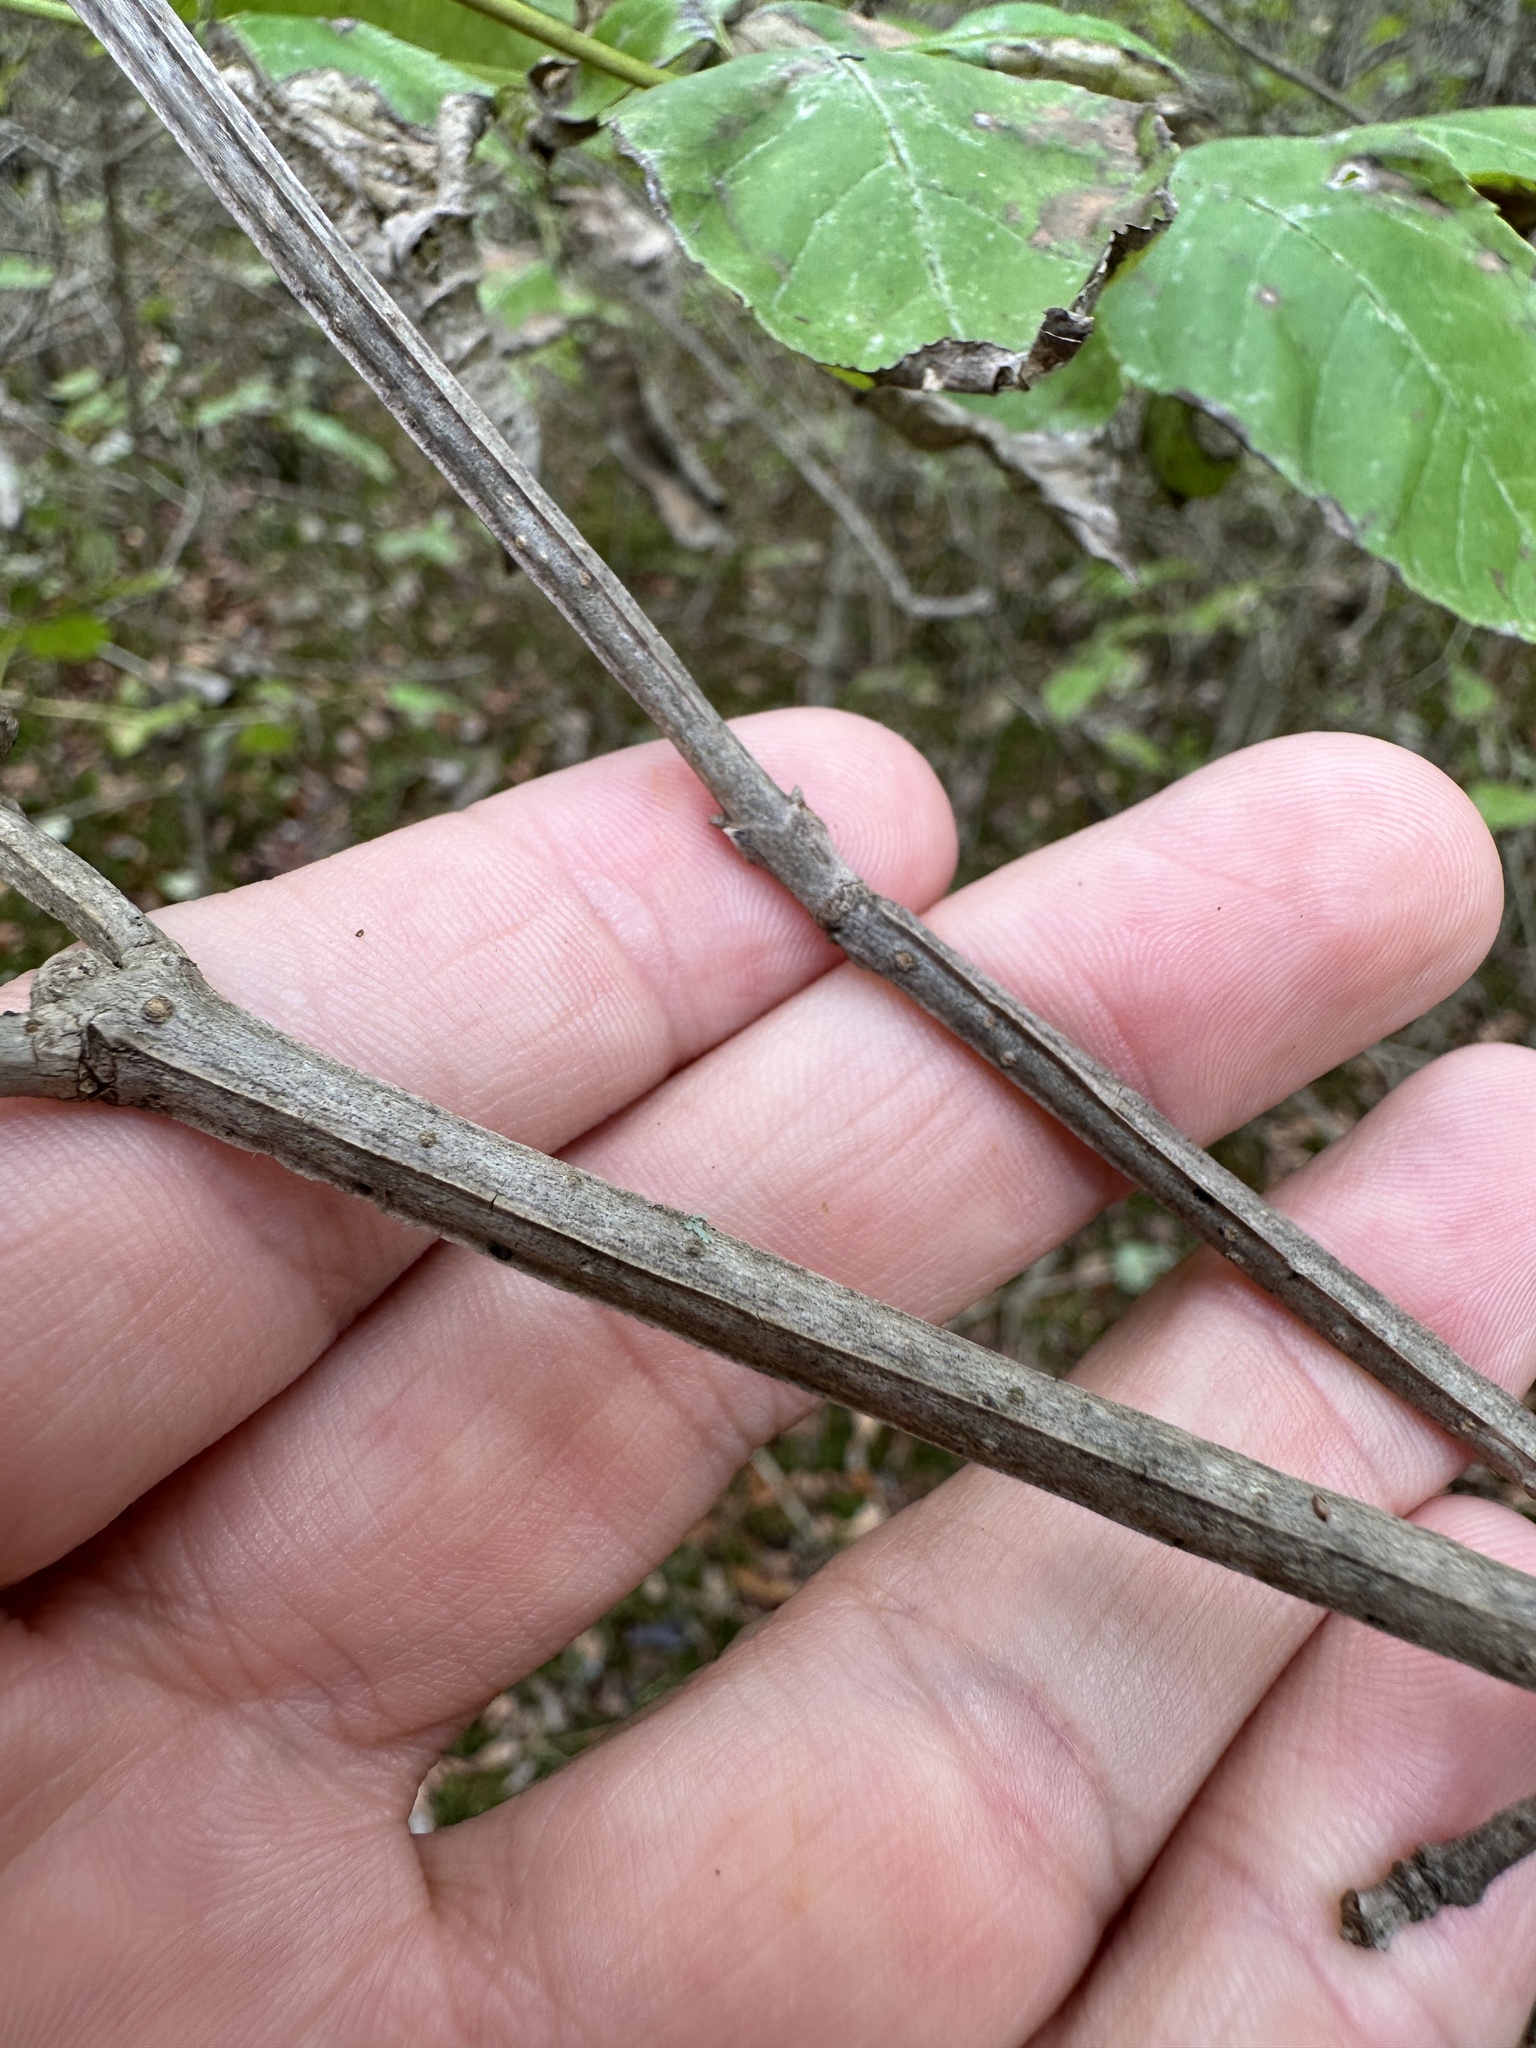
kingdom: Plantae
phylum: Tracheophyta
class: Magnoliopsida
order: Lamiales
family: Oleaceae
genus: Fraxinus
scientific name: Fraxinus quadrangulata
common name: Blue ash
